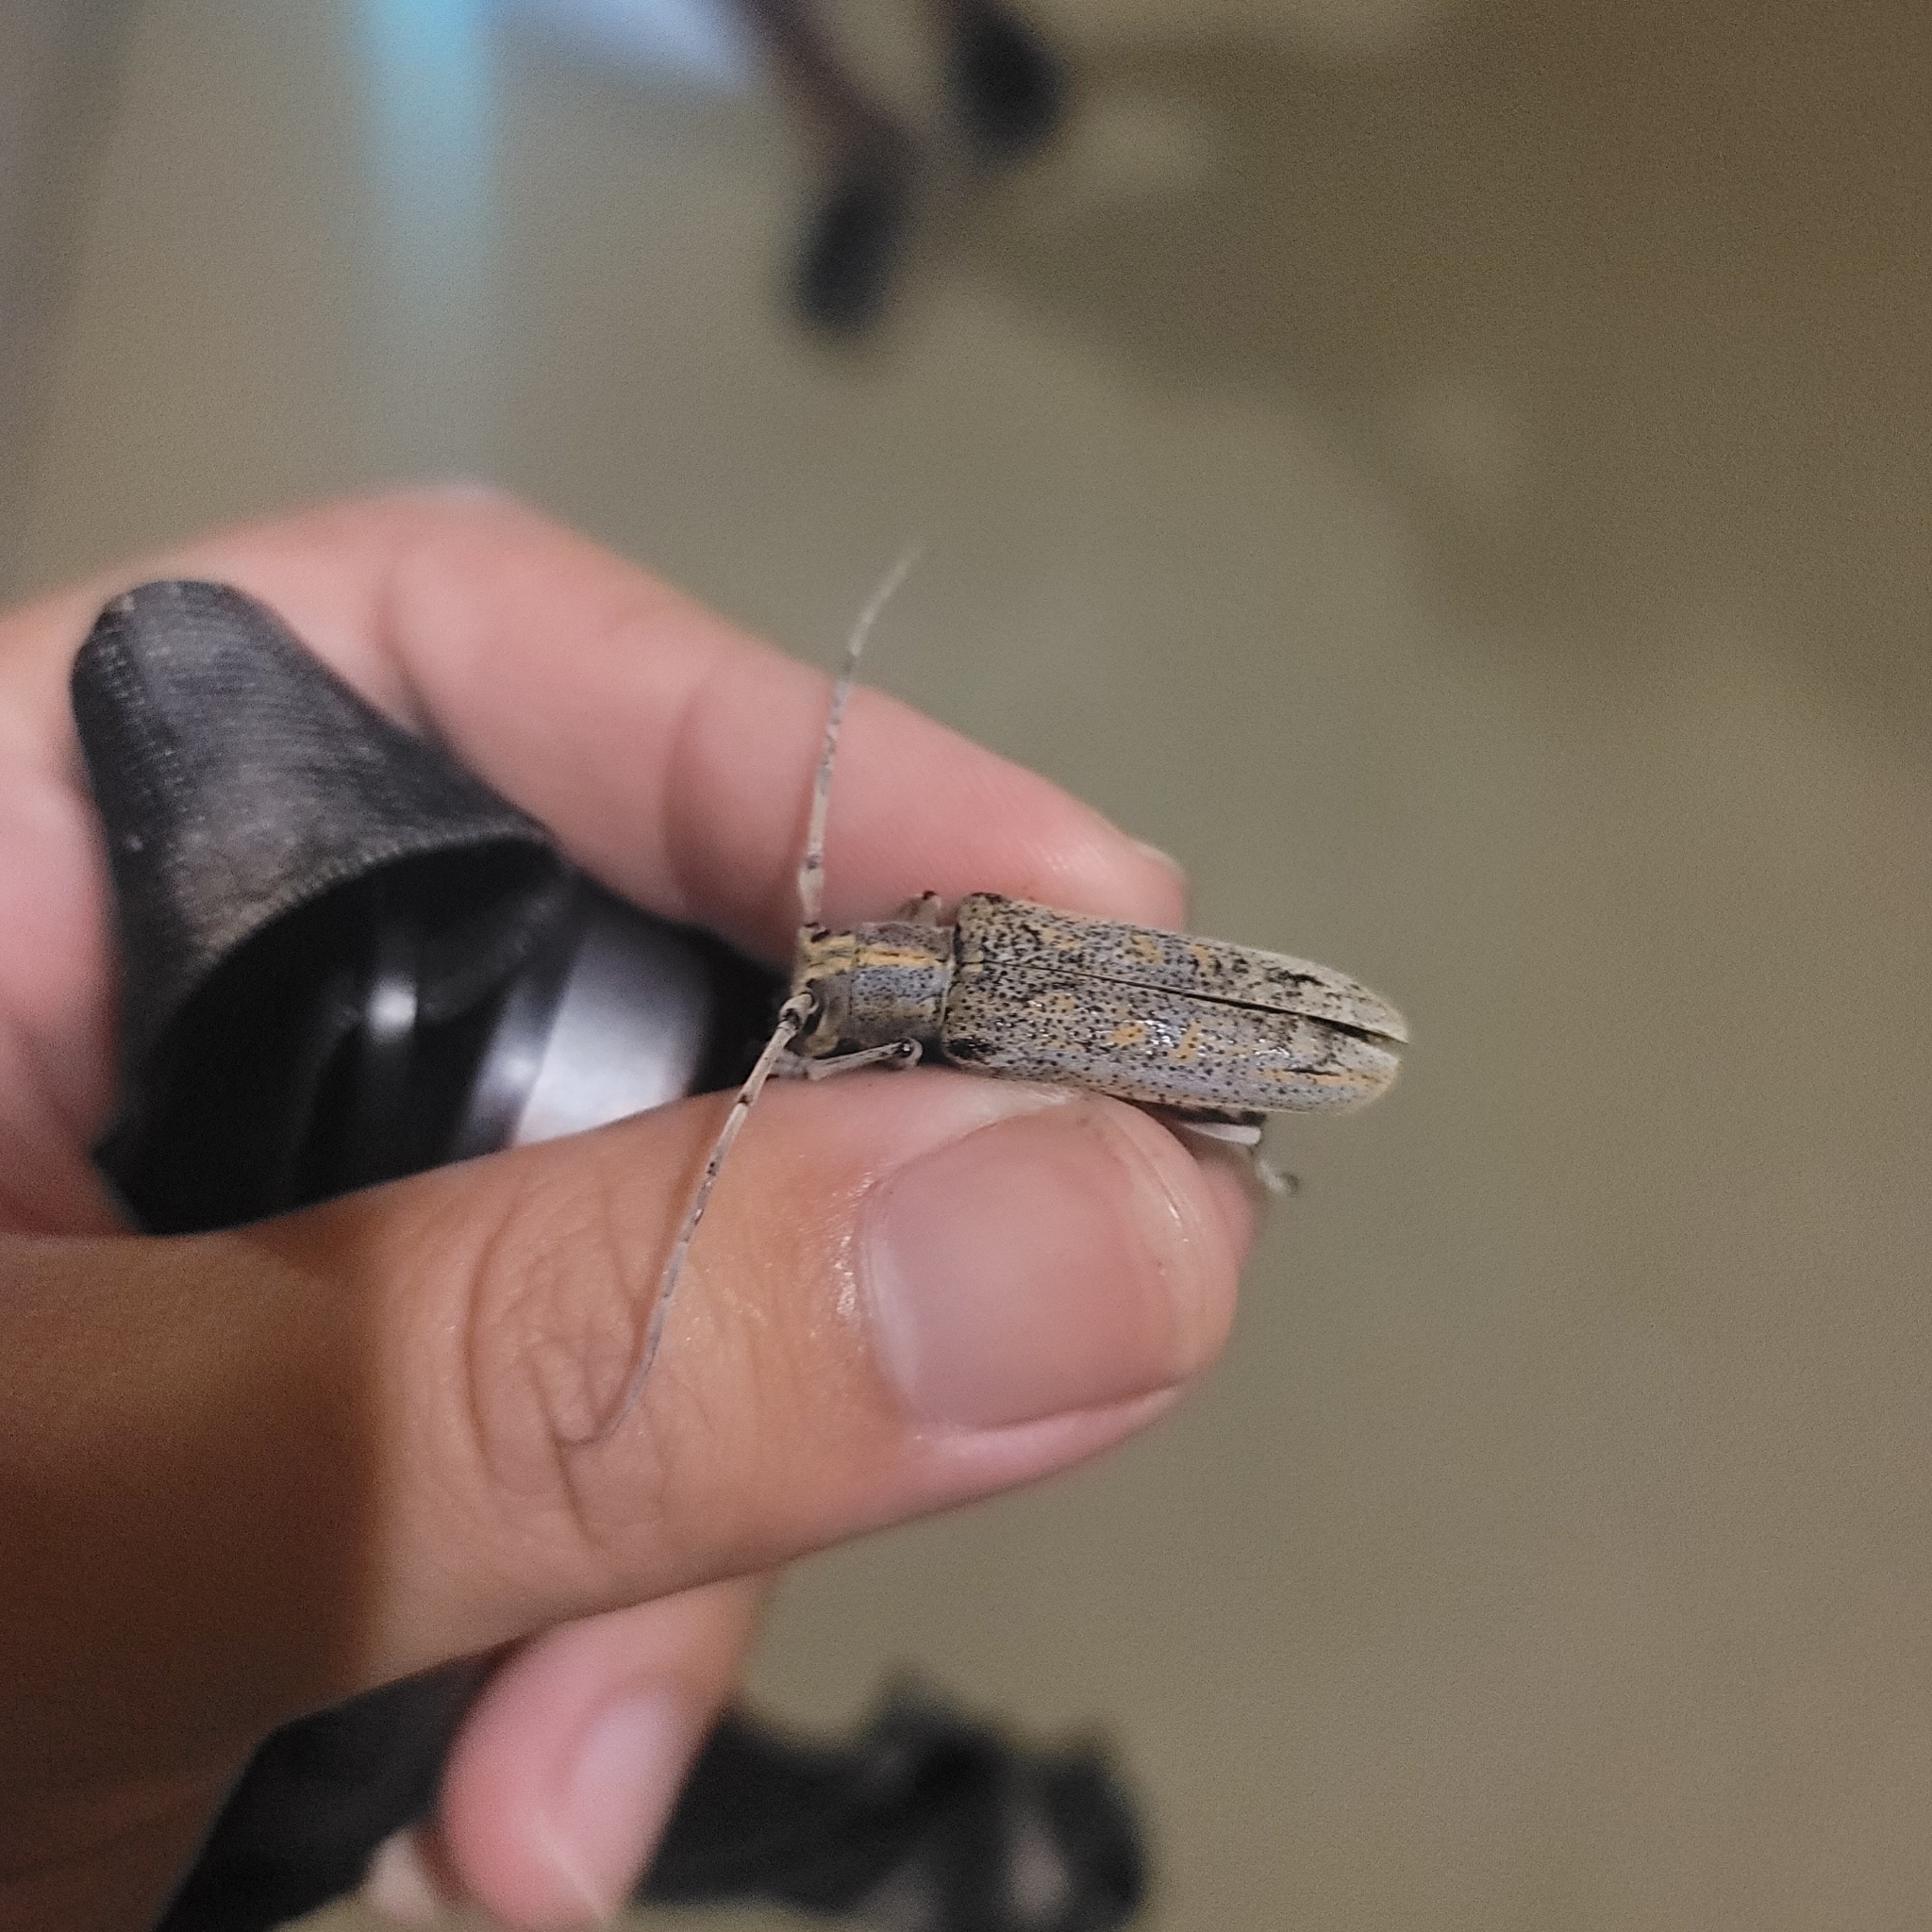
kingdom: Animalia
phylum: Arthropoda
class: Insecta
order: Coleoptera
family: Cerambycidae
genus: Saperda
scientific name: Saperda calcarata
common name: Poplar borer
